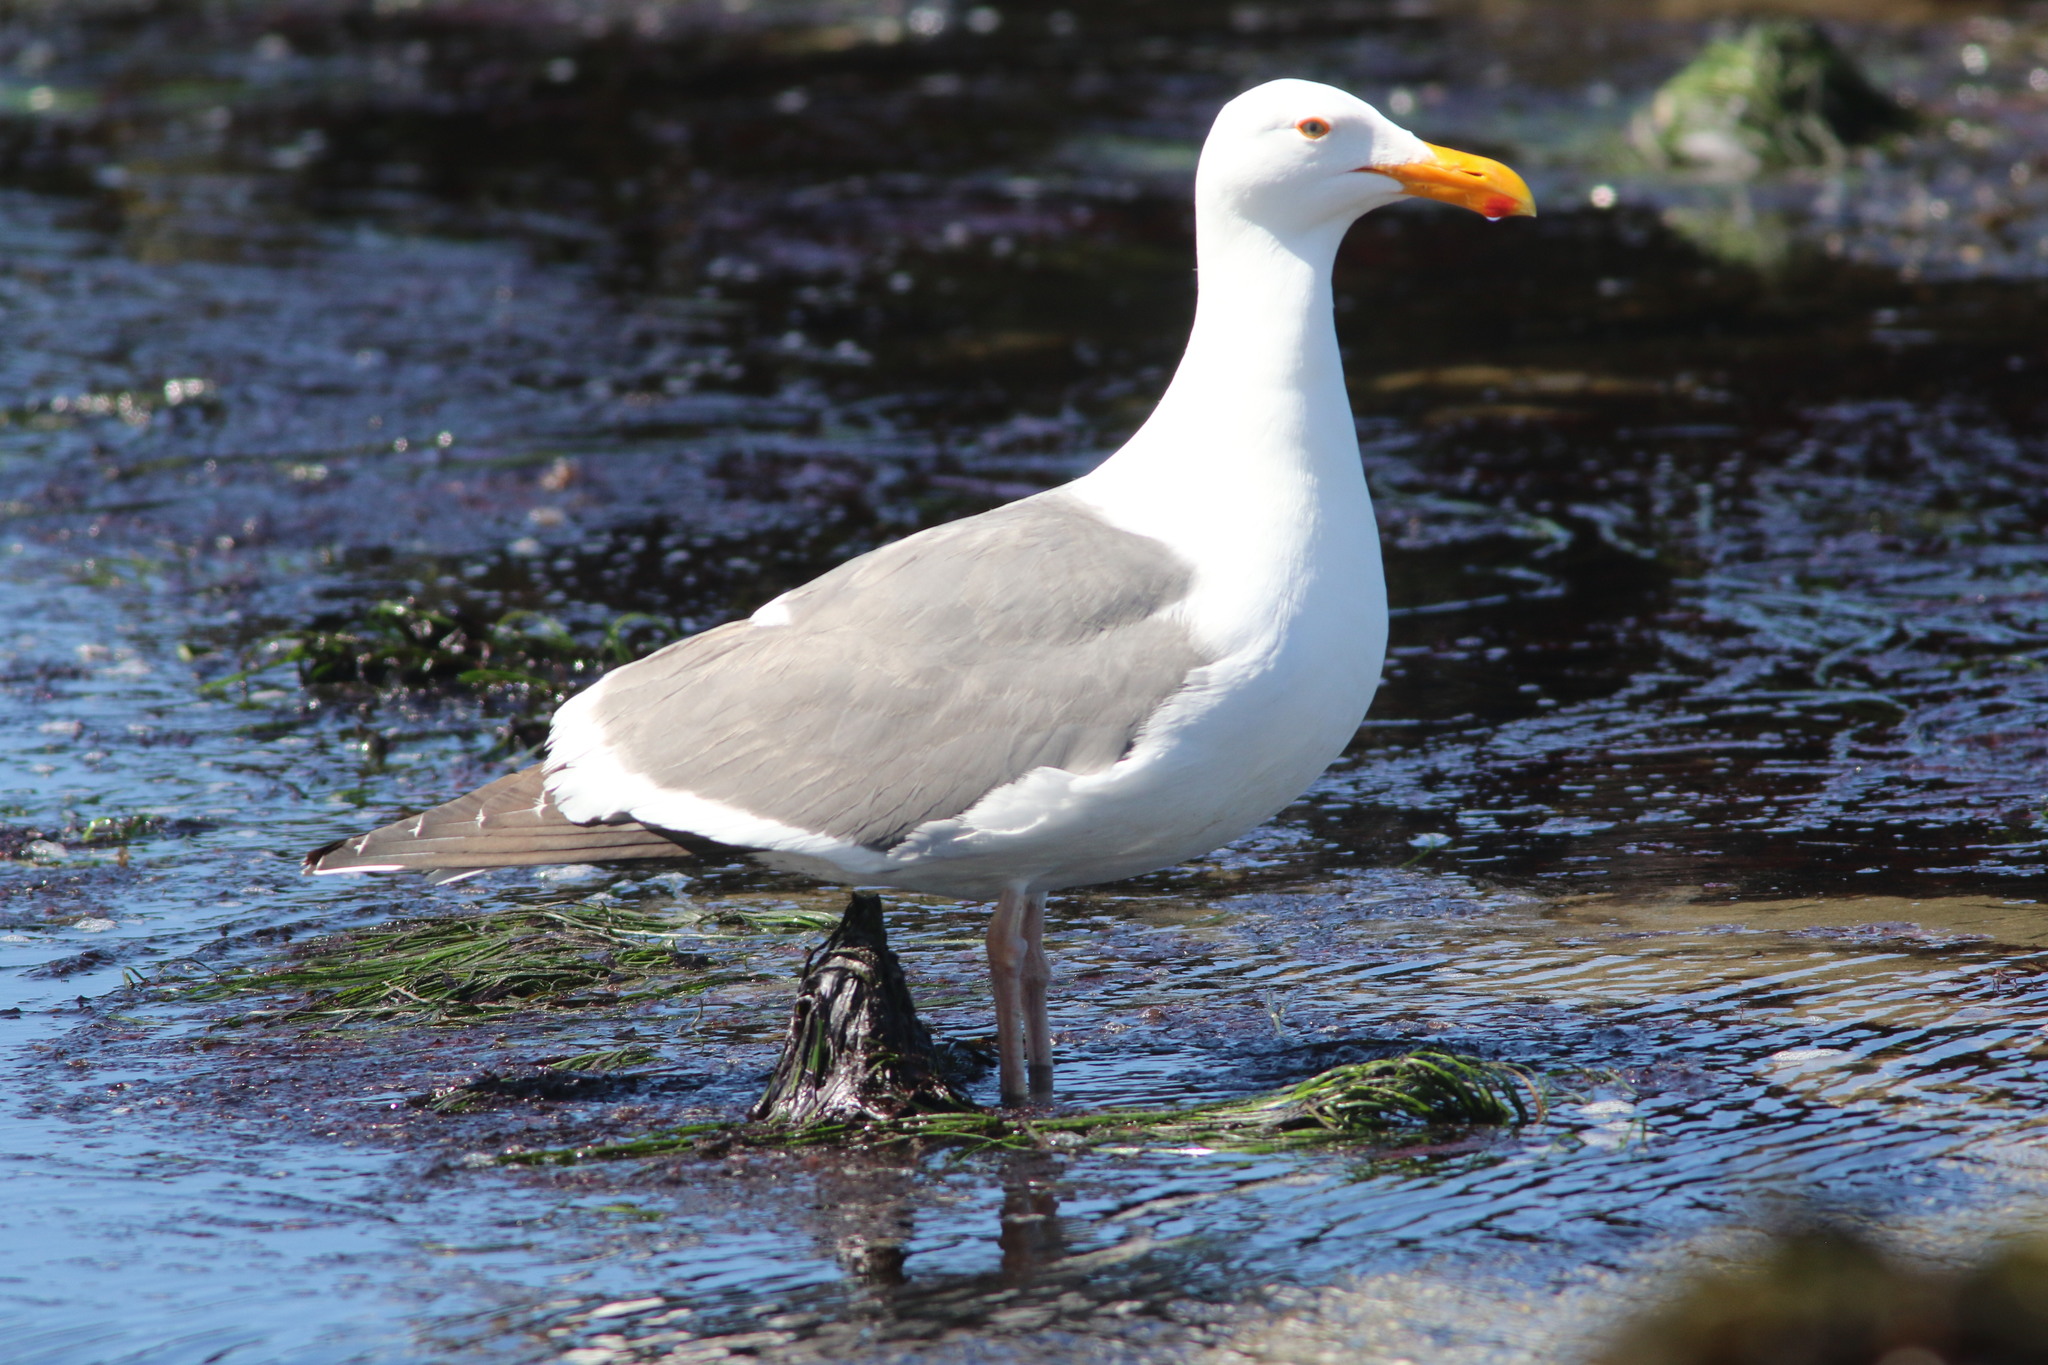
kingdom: Animalia
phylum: Chordata
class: Aves
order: Charadriiformes
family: Laridae
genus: Larus
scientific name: Larus occidentalis
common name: Western gull
